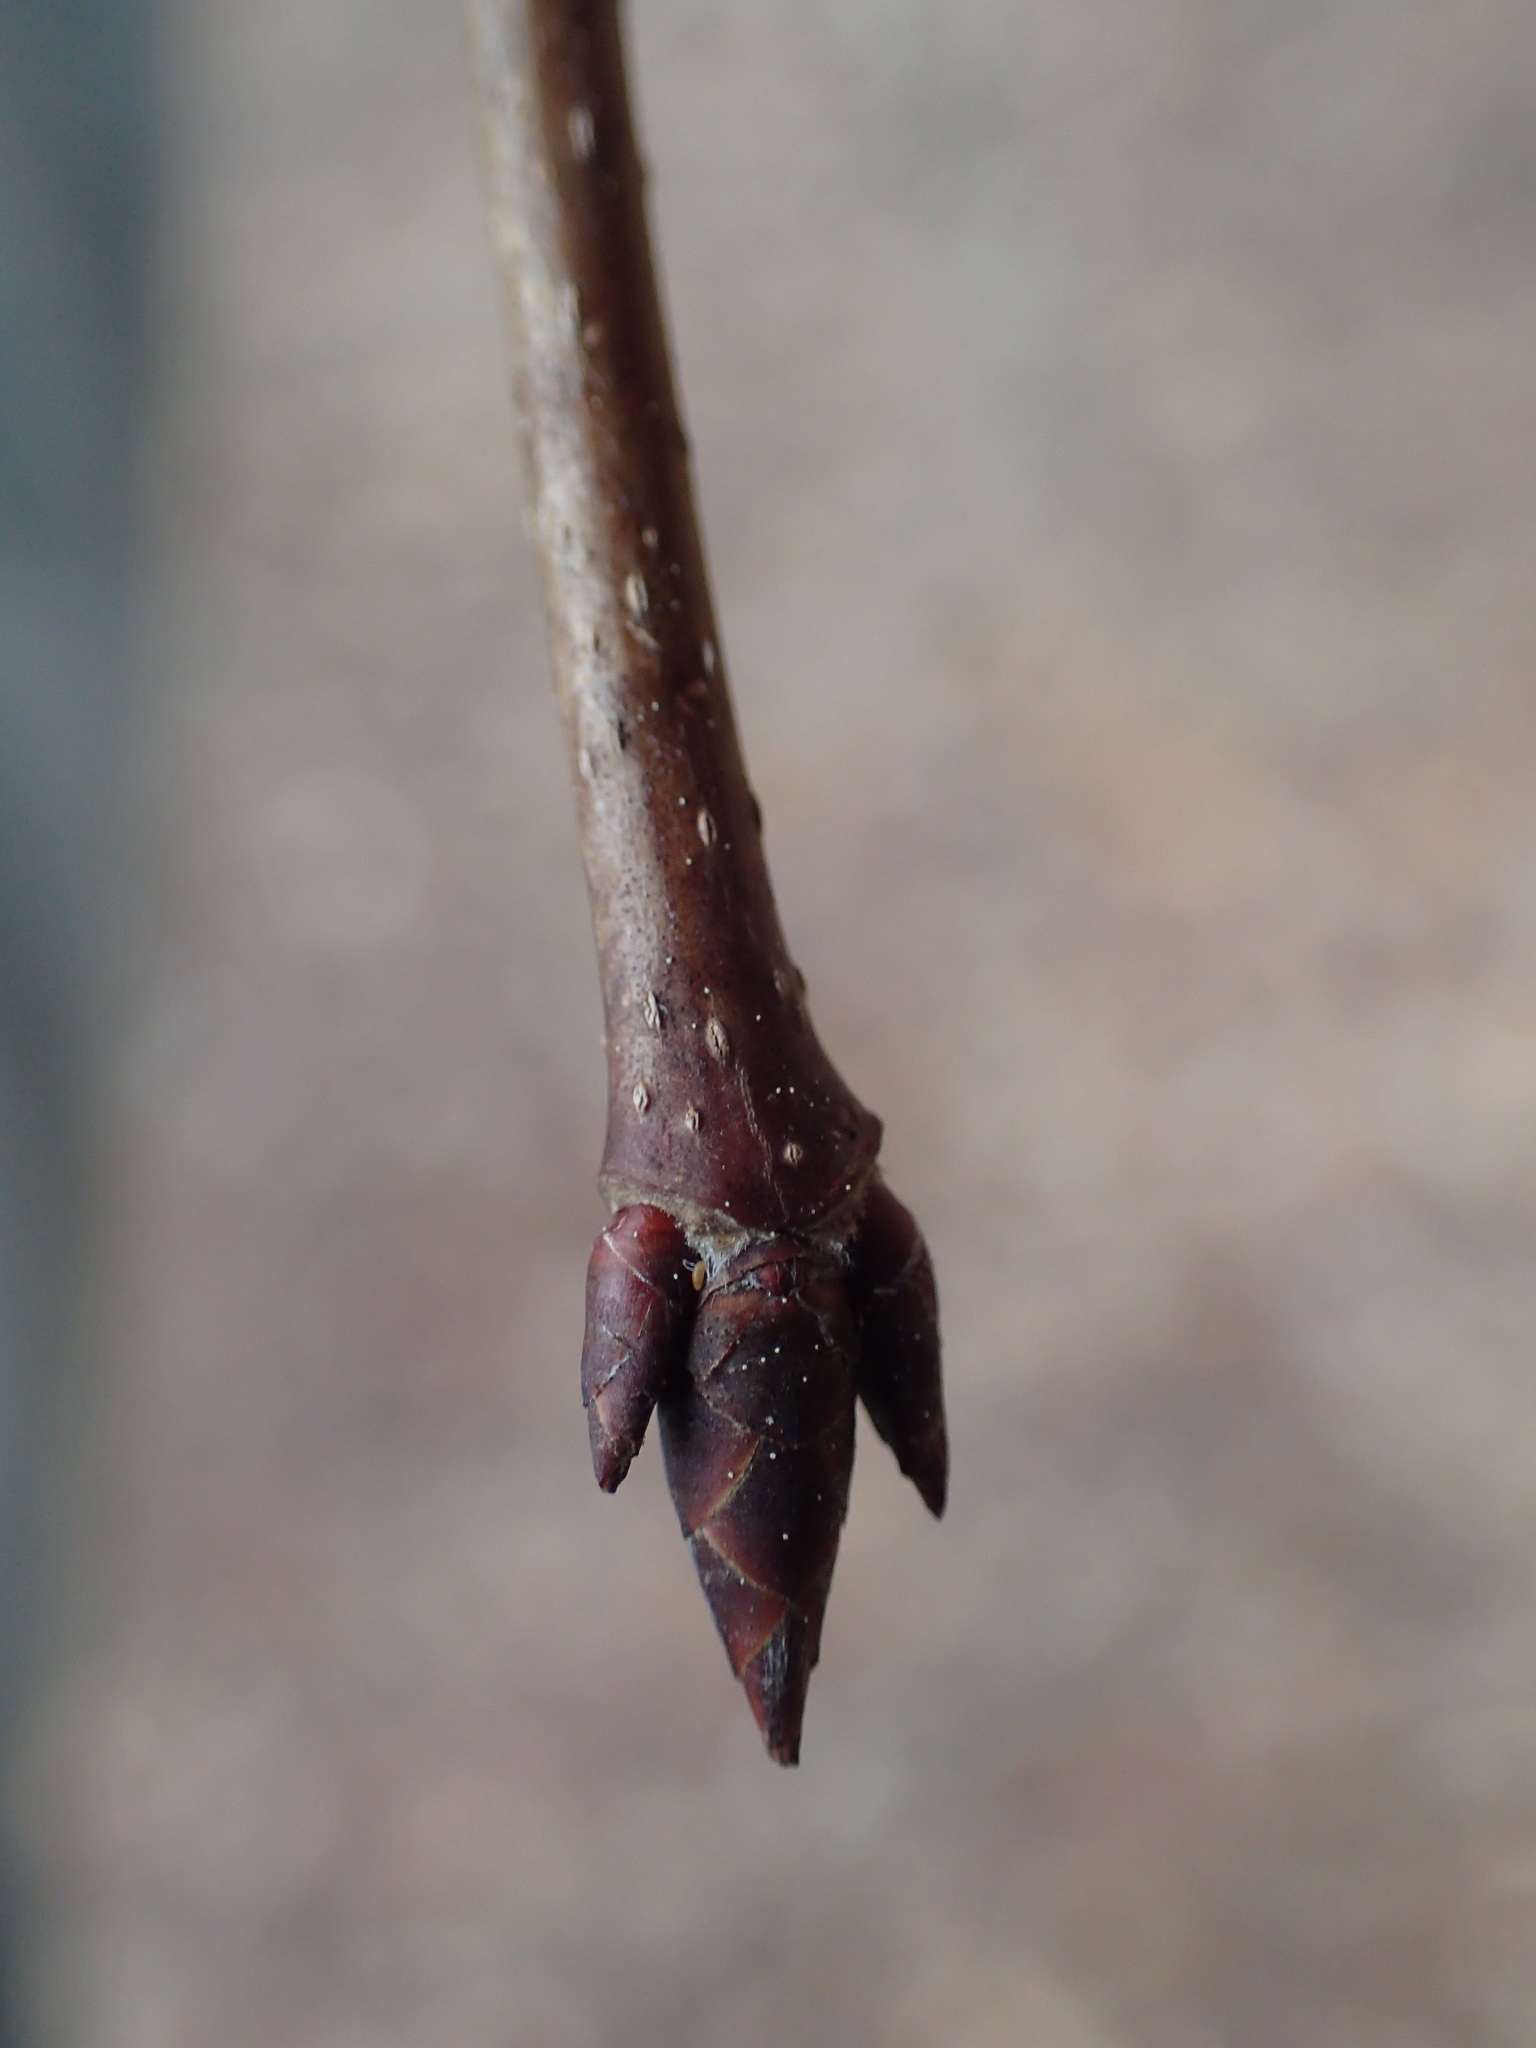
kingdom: Plantae
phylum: Tracheophyta
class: Magnoliopsida
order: Sapindales
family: Sapindaceae
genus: Acer
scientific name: Acer saccharum
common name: Sugar maple
